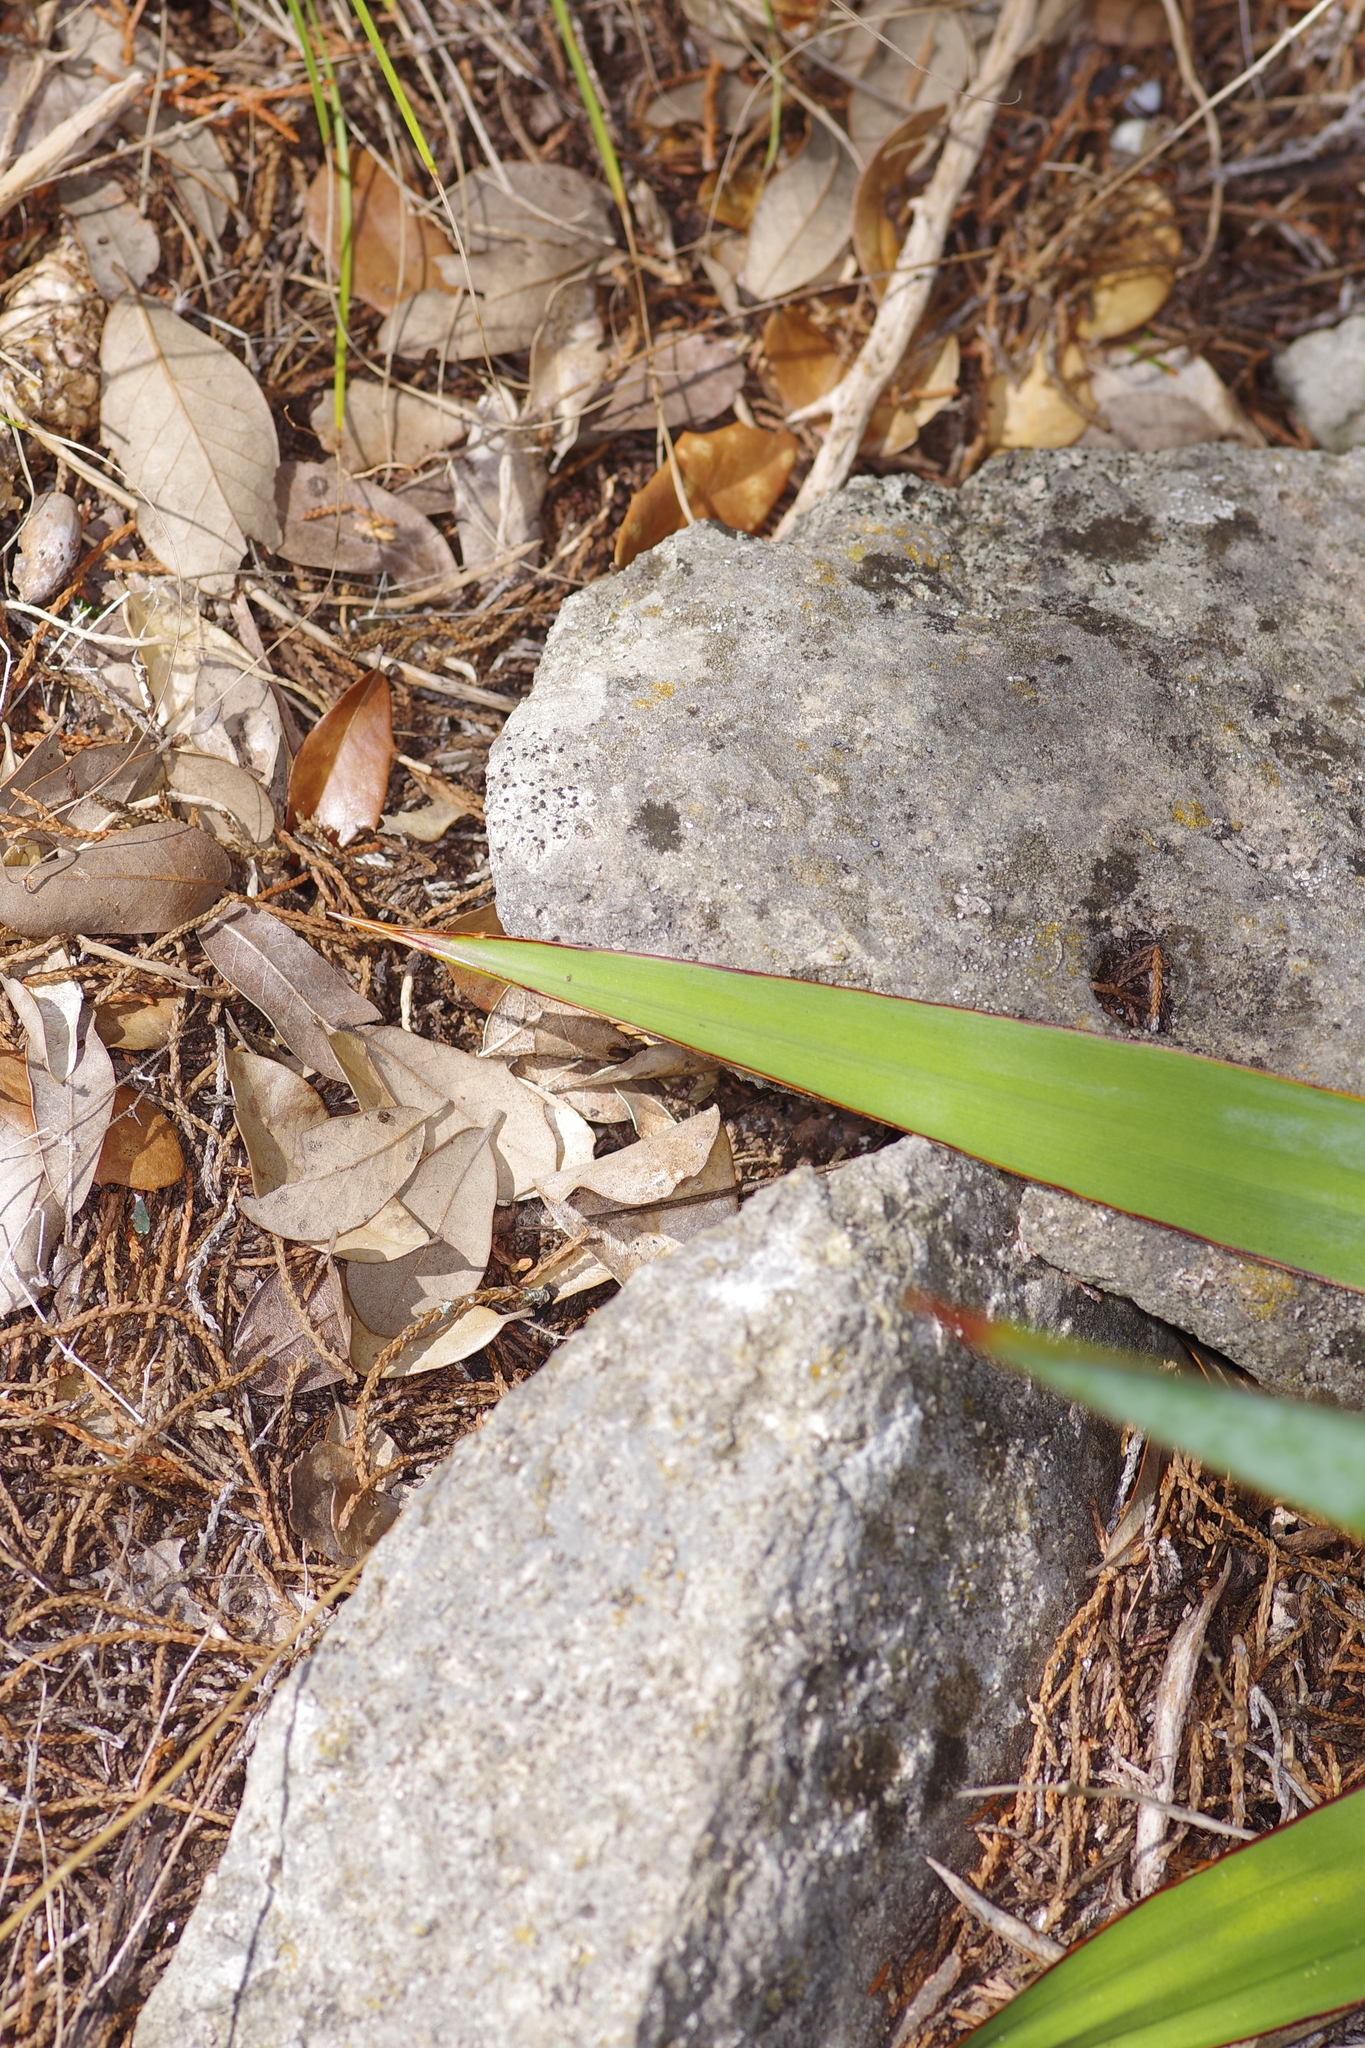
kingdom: Plantae
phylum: Tracheophyta
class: Liliopsida
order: Asparagales
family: Asparagaceae
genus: Yucca
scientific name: Yucca rupicola
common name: Twisted-leaf spanish-dagger
